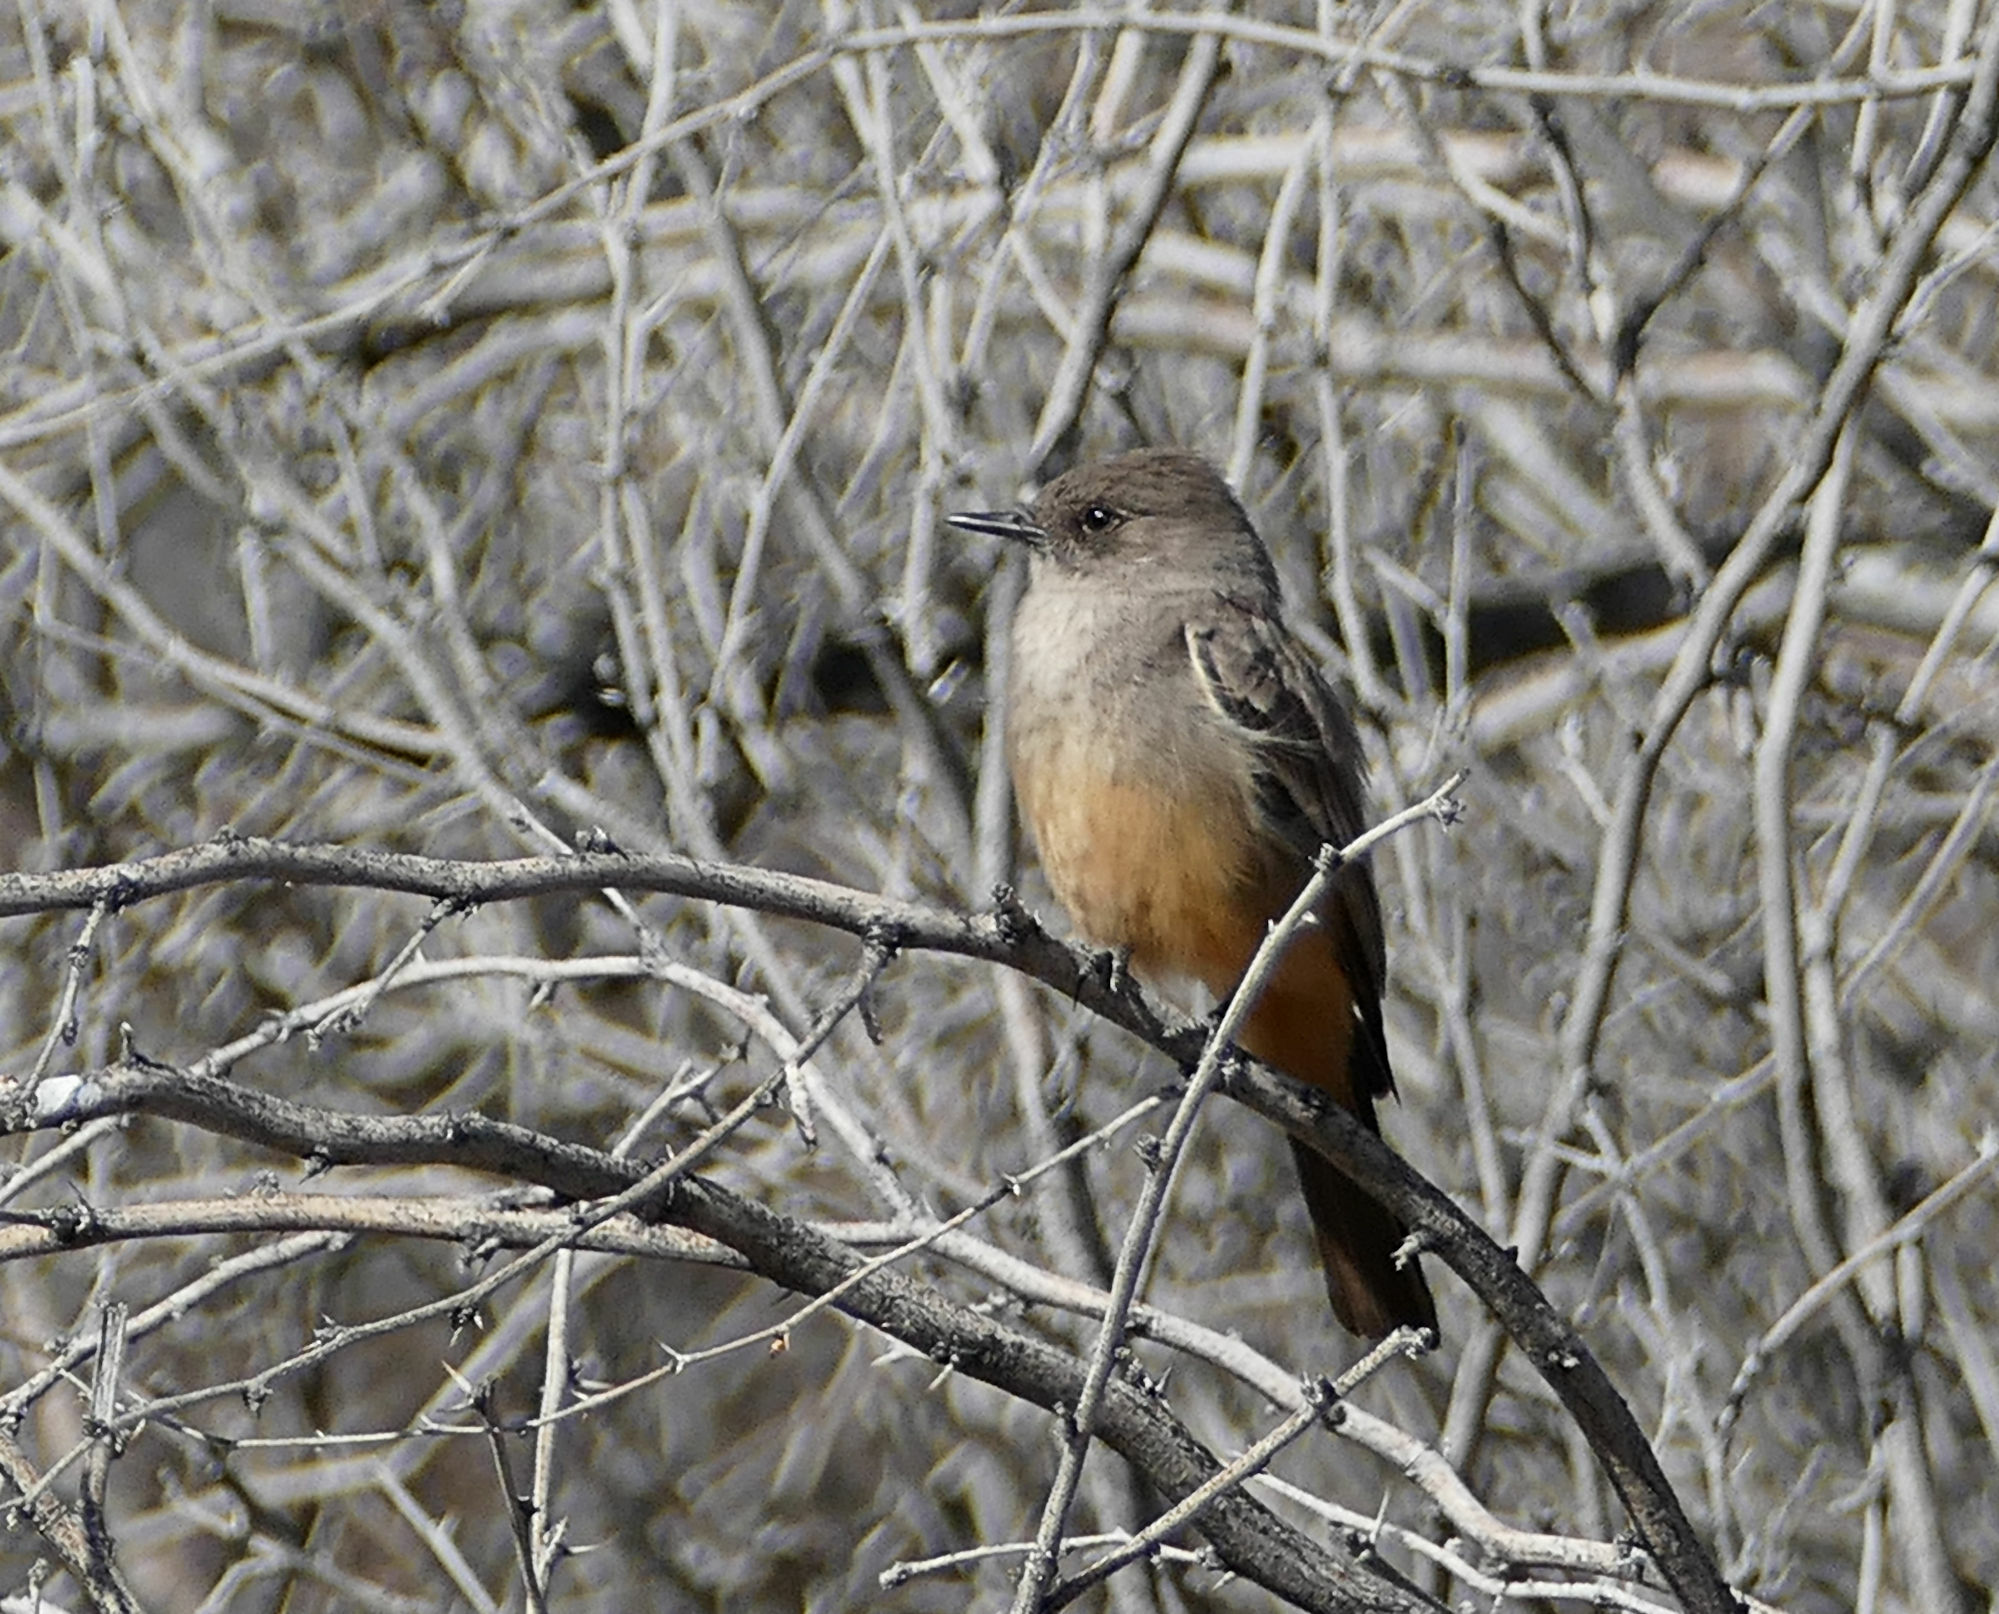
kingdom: Animalia
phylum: Chordata
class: Aves
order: Passeriformes
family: Tyrannidae
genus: Sayornis
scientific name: Sayornis saya
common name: Say's phoebe
